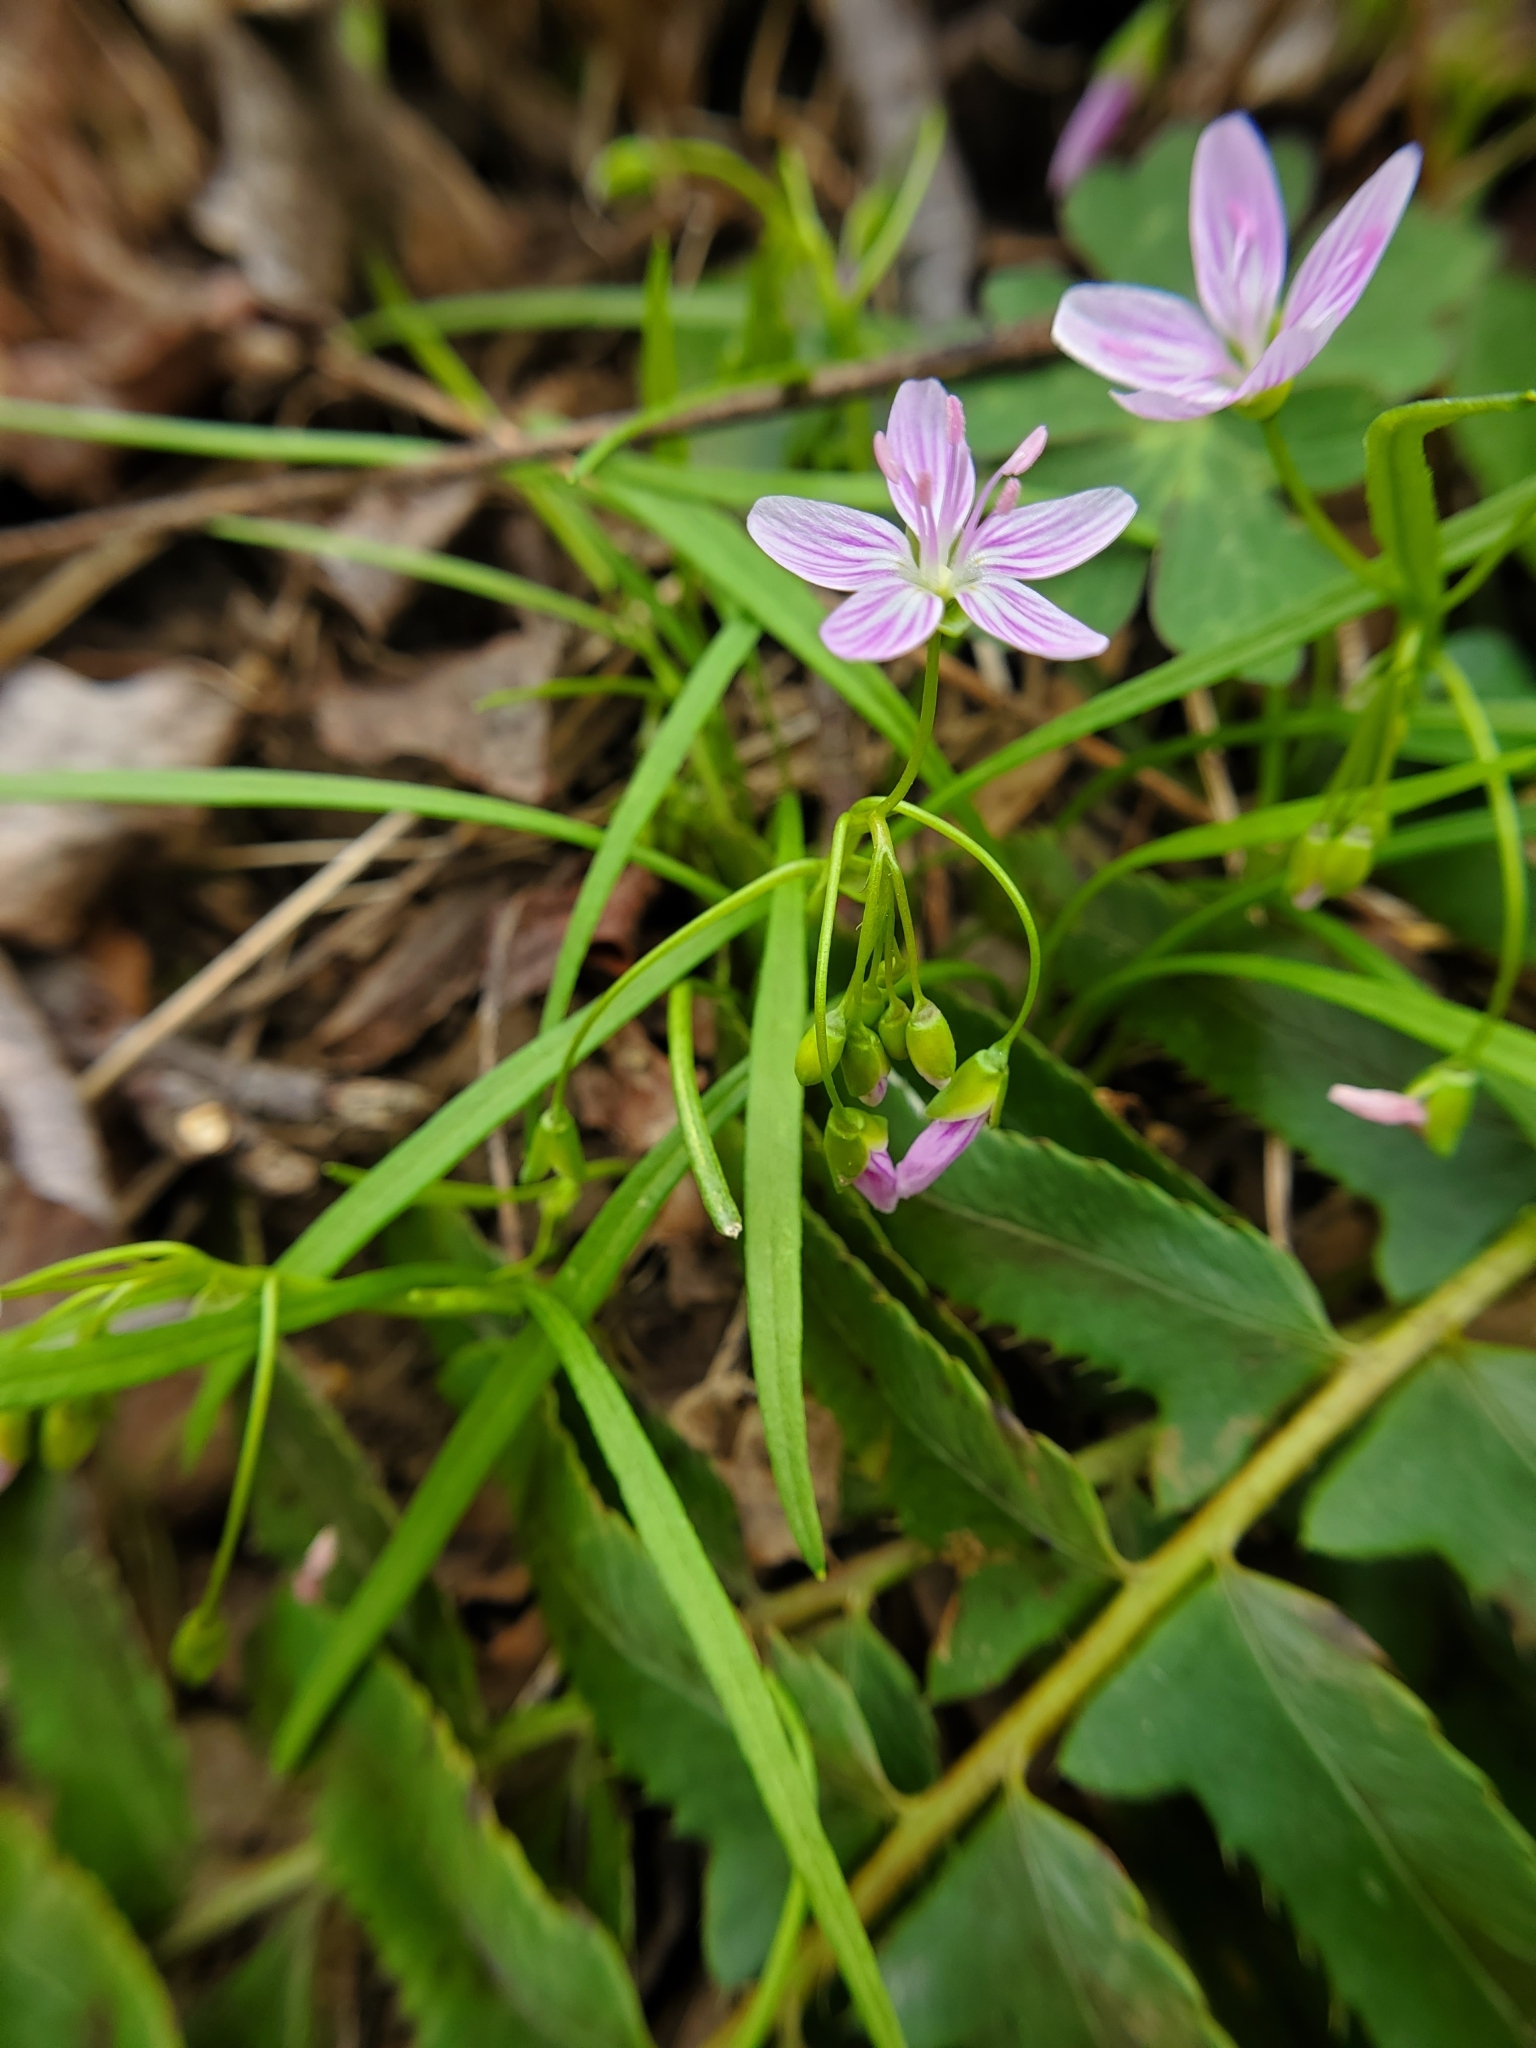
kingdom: Plantae
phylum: Tracheophyta
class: Magnoliopsida
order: Caryophyllales
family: Montiaceae
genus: Claytonia
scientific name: Claytonia virginica
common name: Virginia springbeauty
